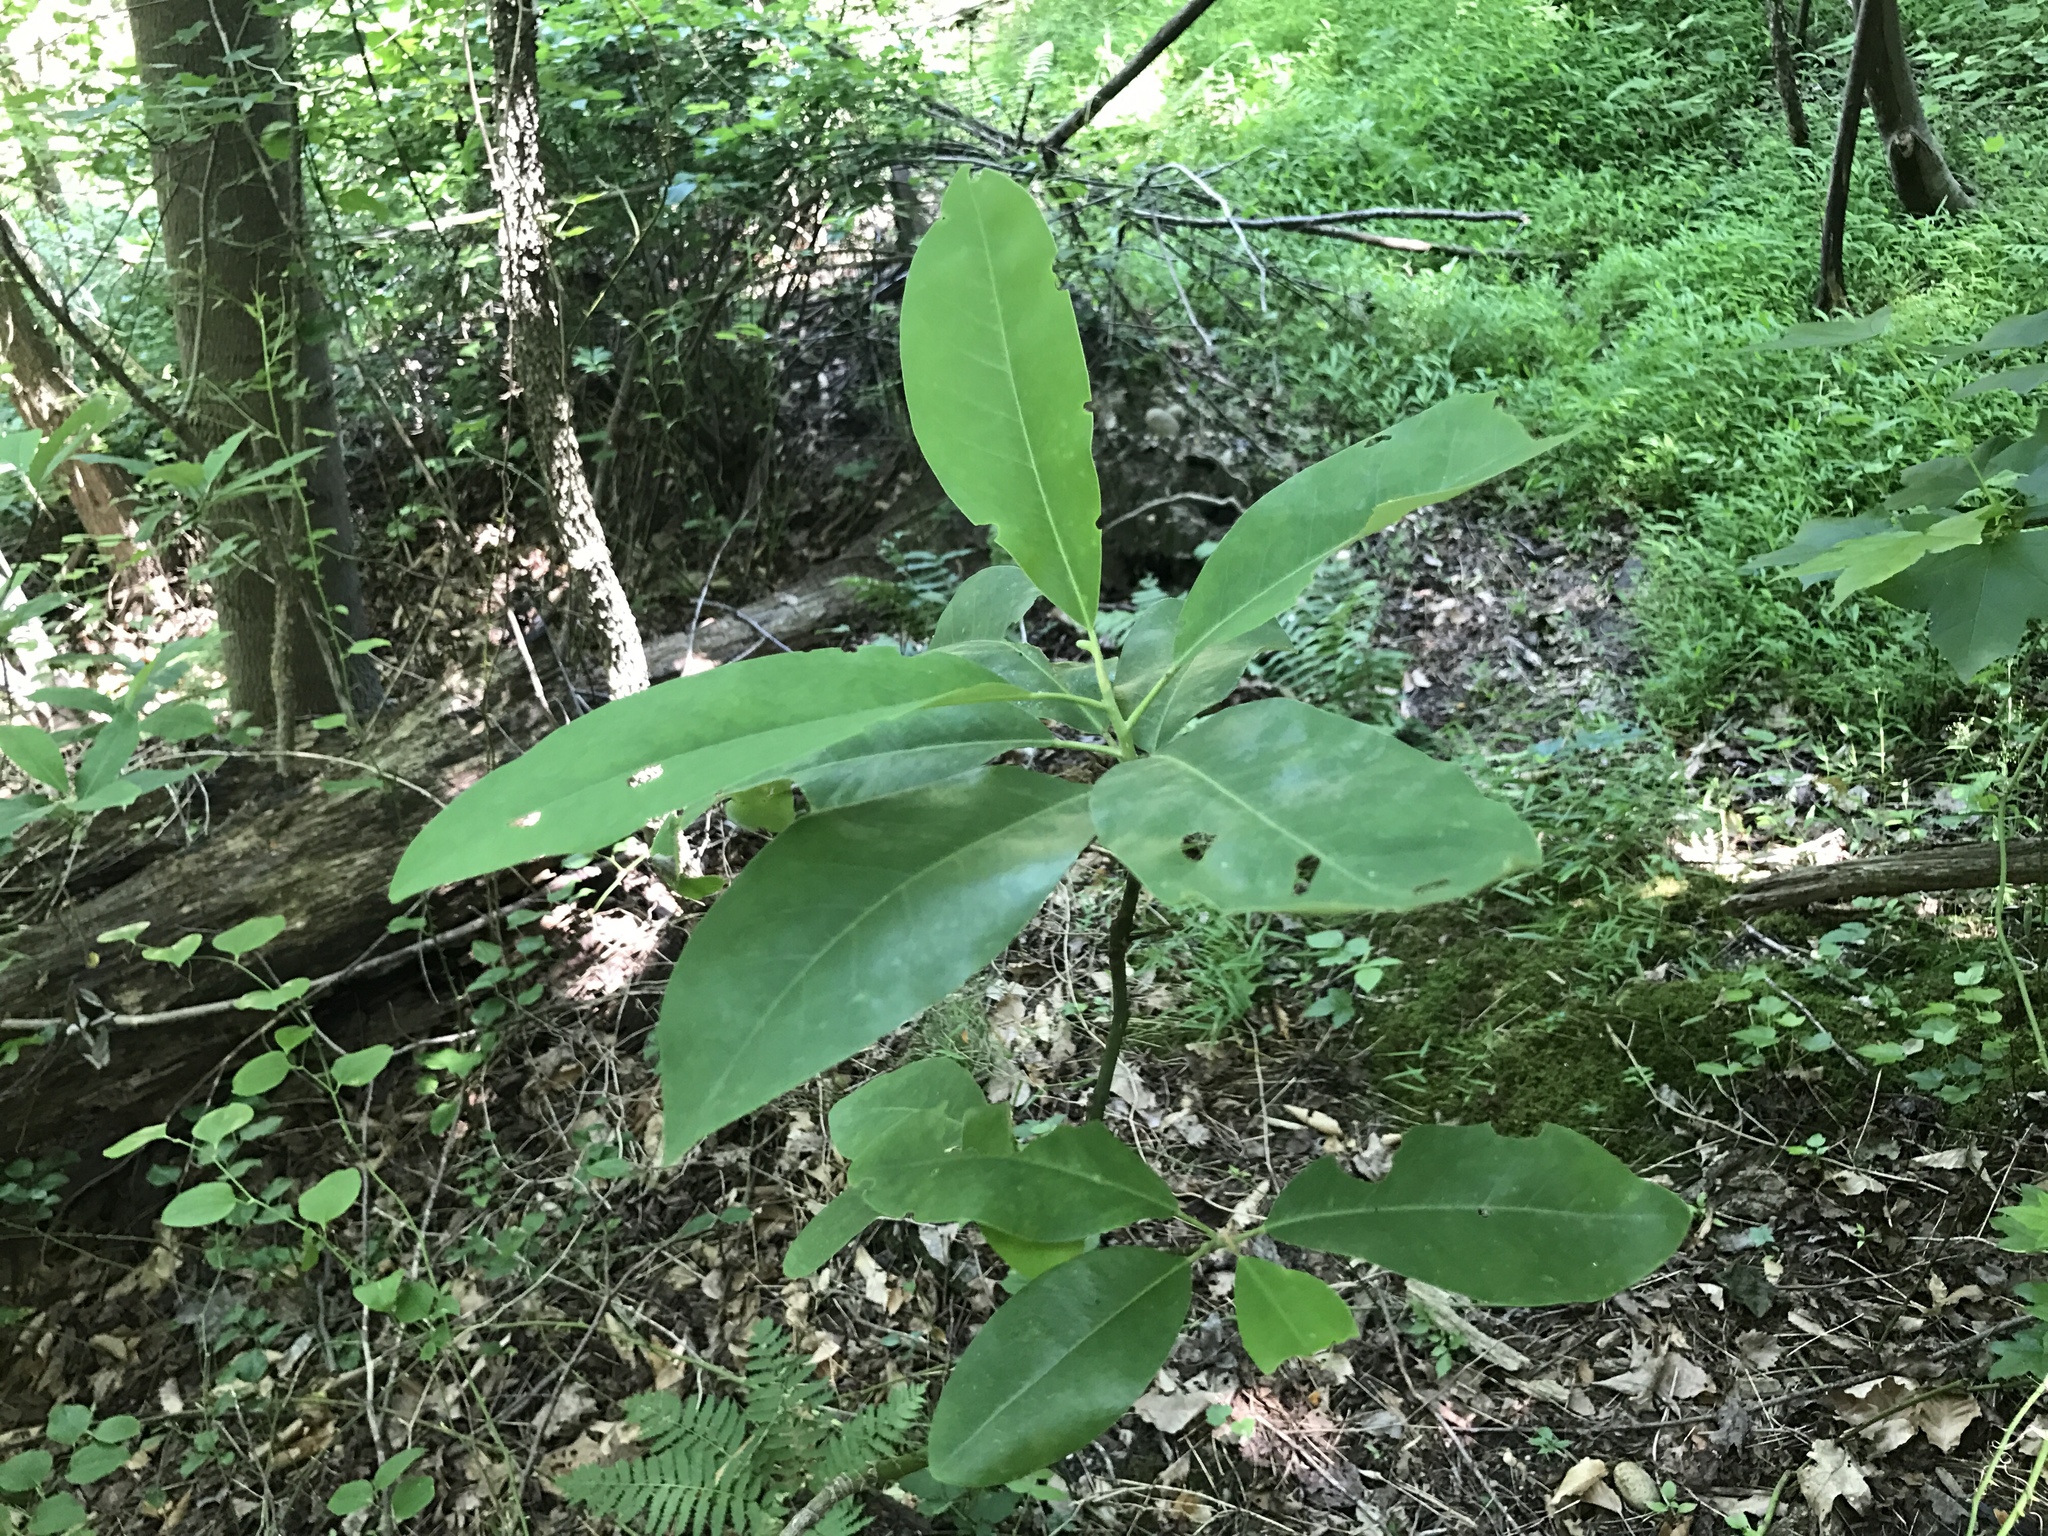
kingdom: Plantae
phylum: Tracheophyta
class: Magnoliopsida
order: Magnoliales
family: Magnoliaceae
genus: Magnolia
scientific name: Magnolia virginiana
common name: Swamp bay
